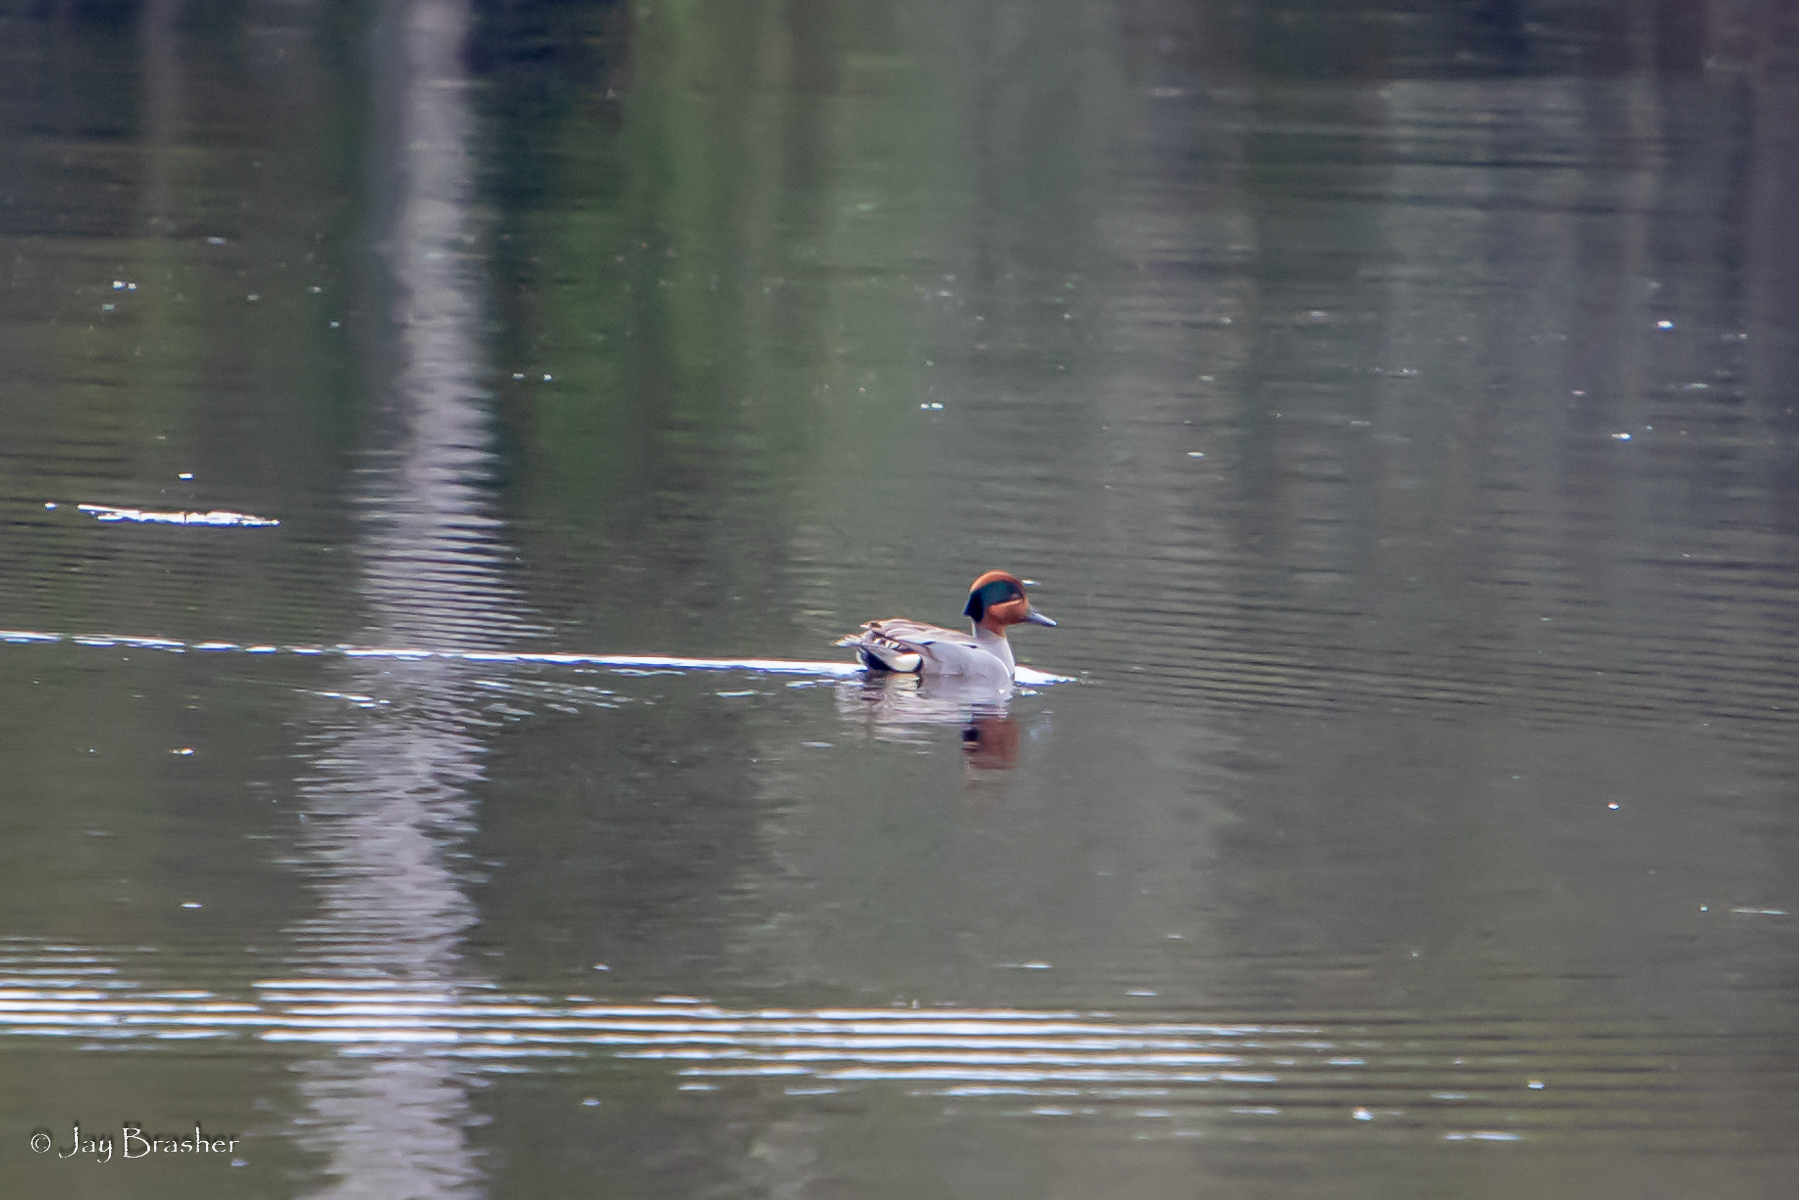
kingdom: Animalia
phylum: Chordata
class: Aves
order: Anseriformes
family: Anatidae
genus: Anas
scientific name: Anas crecca
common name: Eurasian teal
